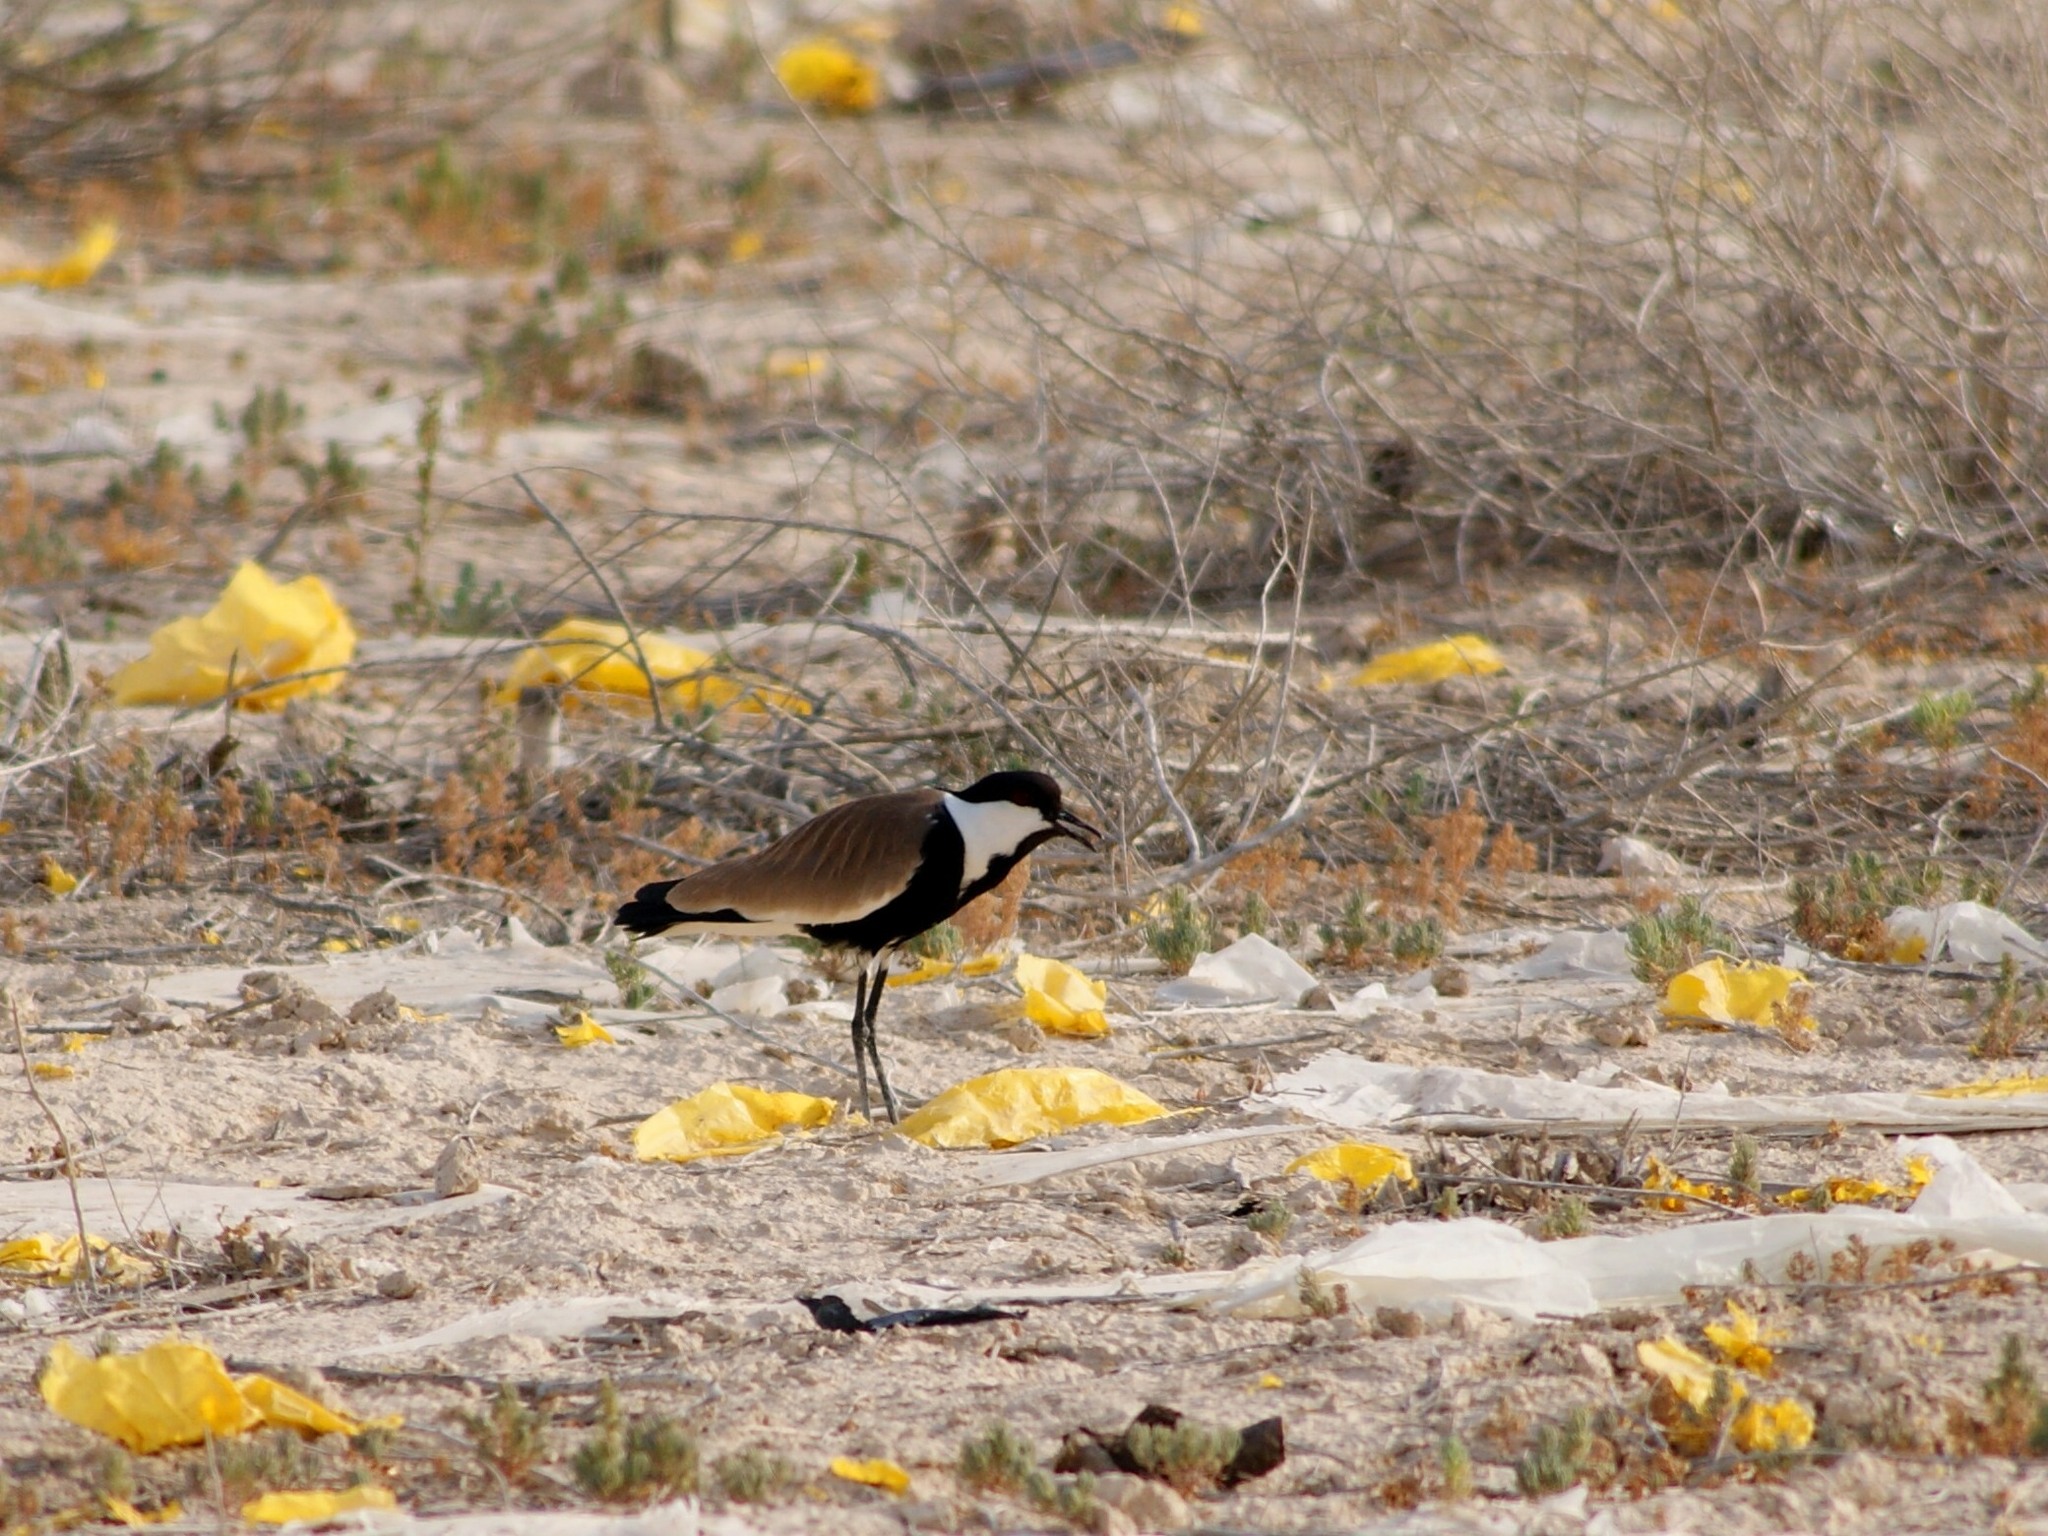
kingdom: Animalia
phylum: Chordata
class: Aves
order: Charadriiformes
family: Charadriidae
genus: Vanellus
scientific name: Vanellus spinosus
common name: Spur-winged lapwing
